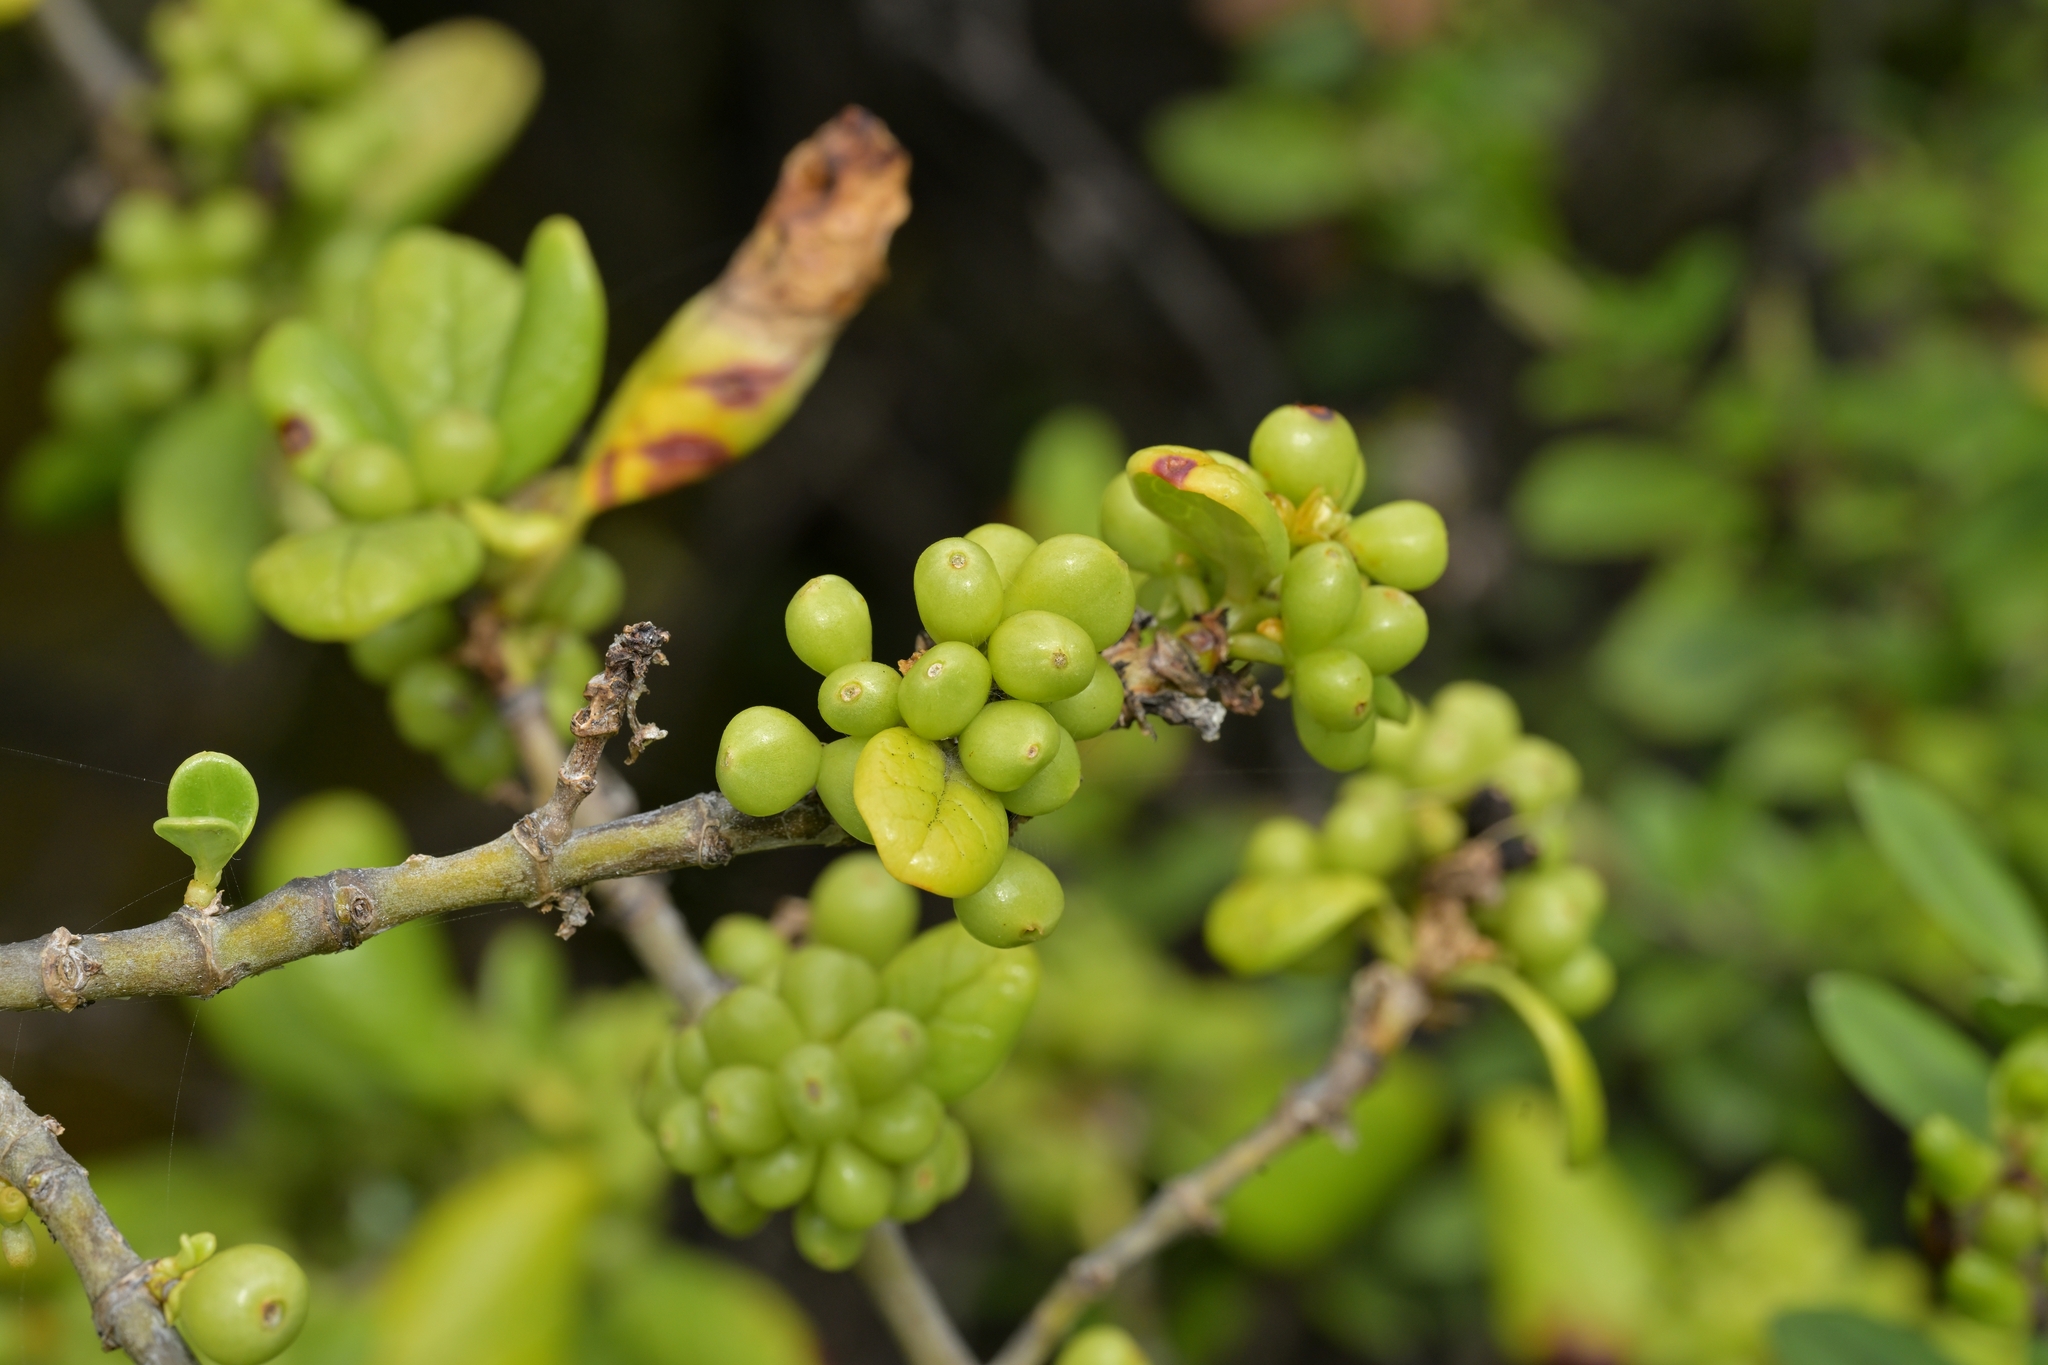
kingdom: Plantae
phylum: Tracheophyta
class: Magnoliopsida
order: Gentianales
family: Rubiaceae
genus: Coprosma
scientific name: Coprosma repens
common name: Tree bedstraw
